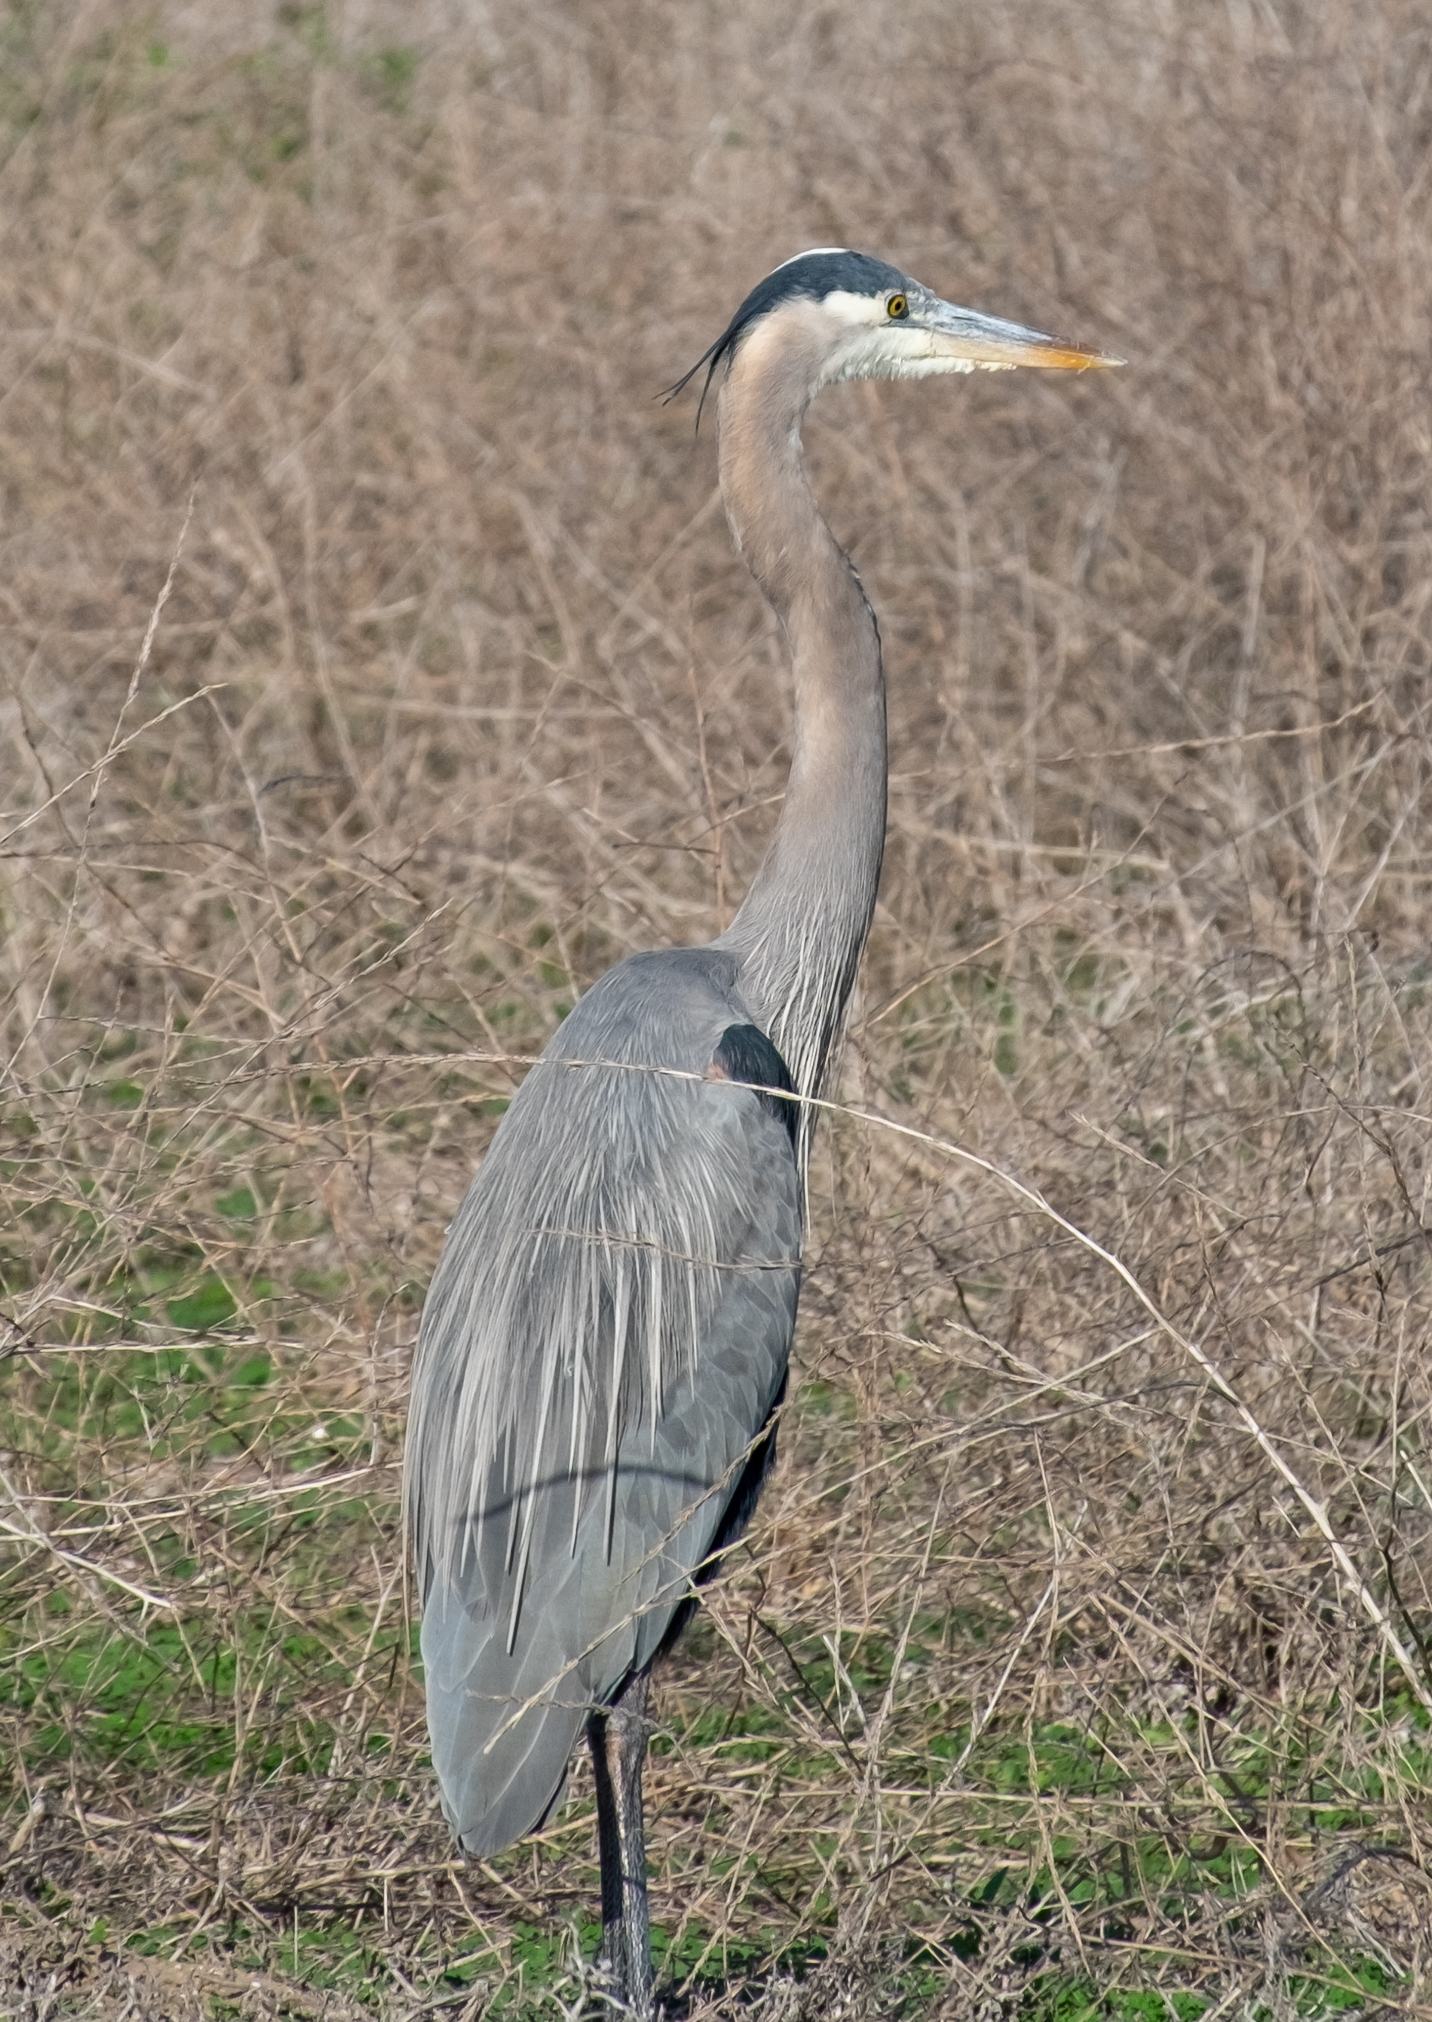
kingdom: Animalia
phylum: Chordata
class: Aves
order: Pelecaniformes
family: Ardeidae
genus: Ardea
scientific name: Ardea herodias
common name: Great blue heron
